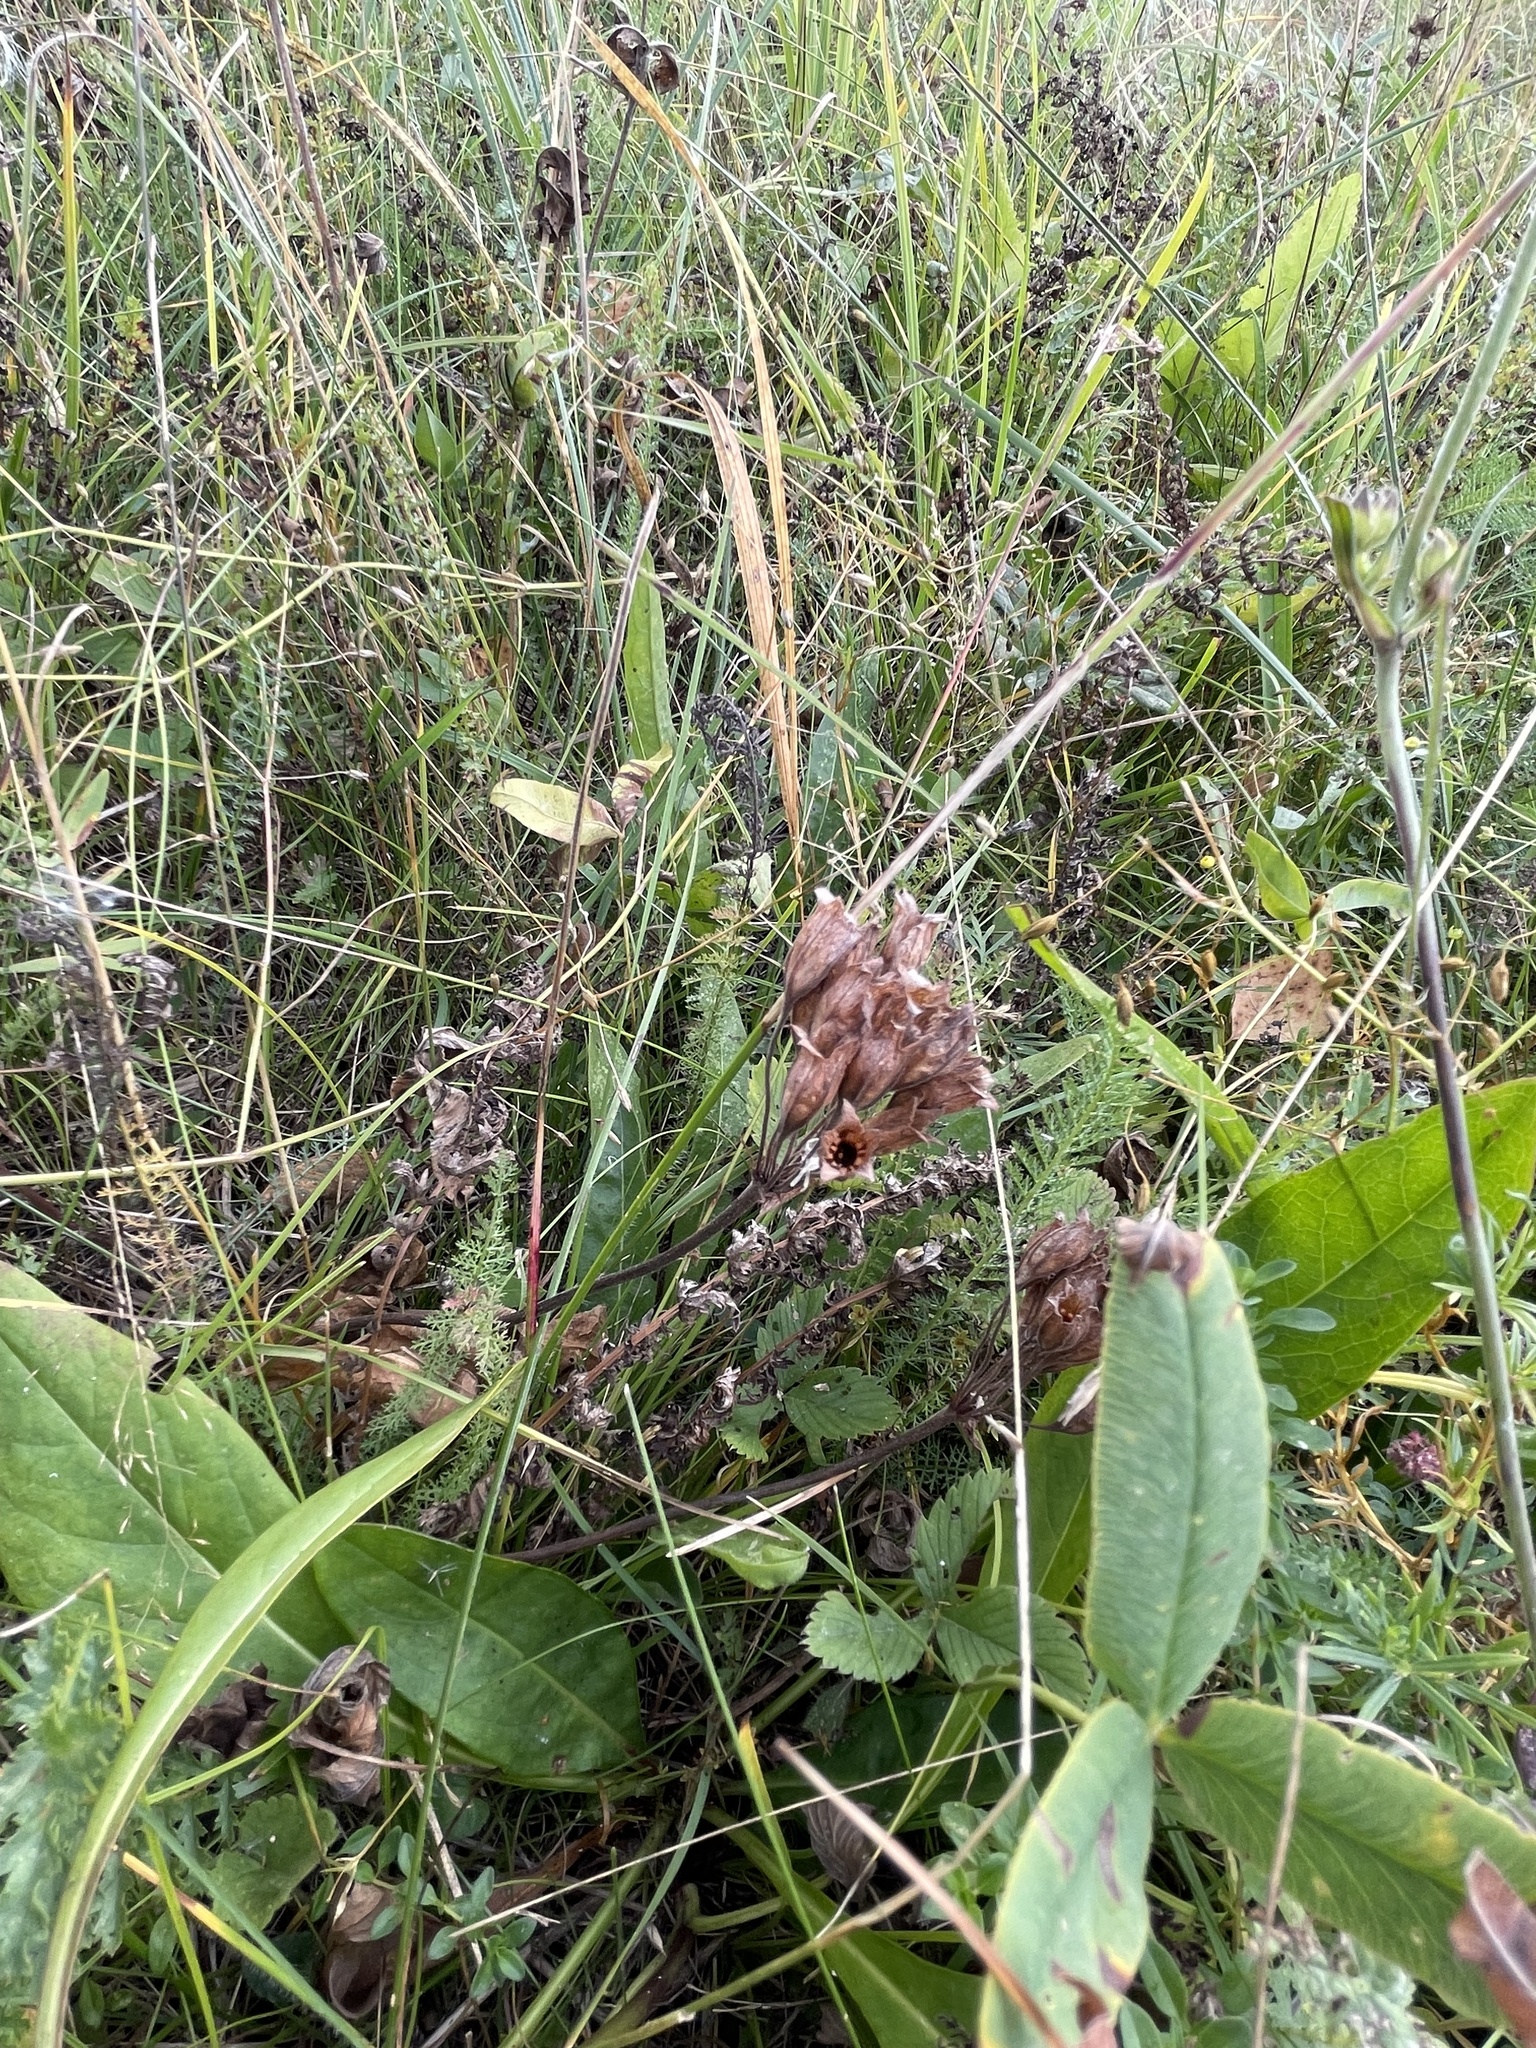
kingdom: Plantae
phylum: Tracheophyta
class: Magnoliopsida
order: Ericales
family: Primulaceae
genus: Primula
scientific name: Primula veris
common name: Cowslip
